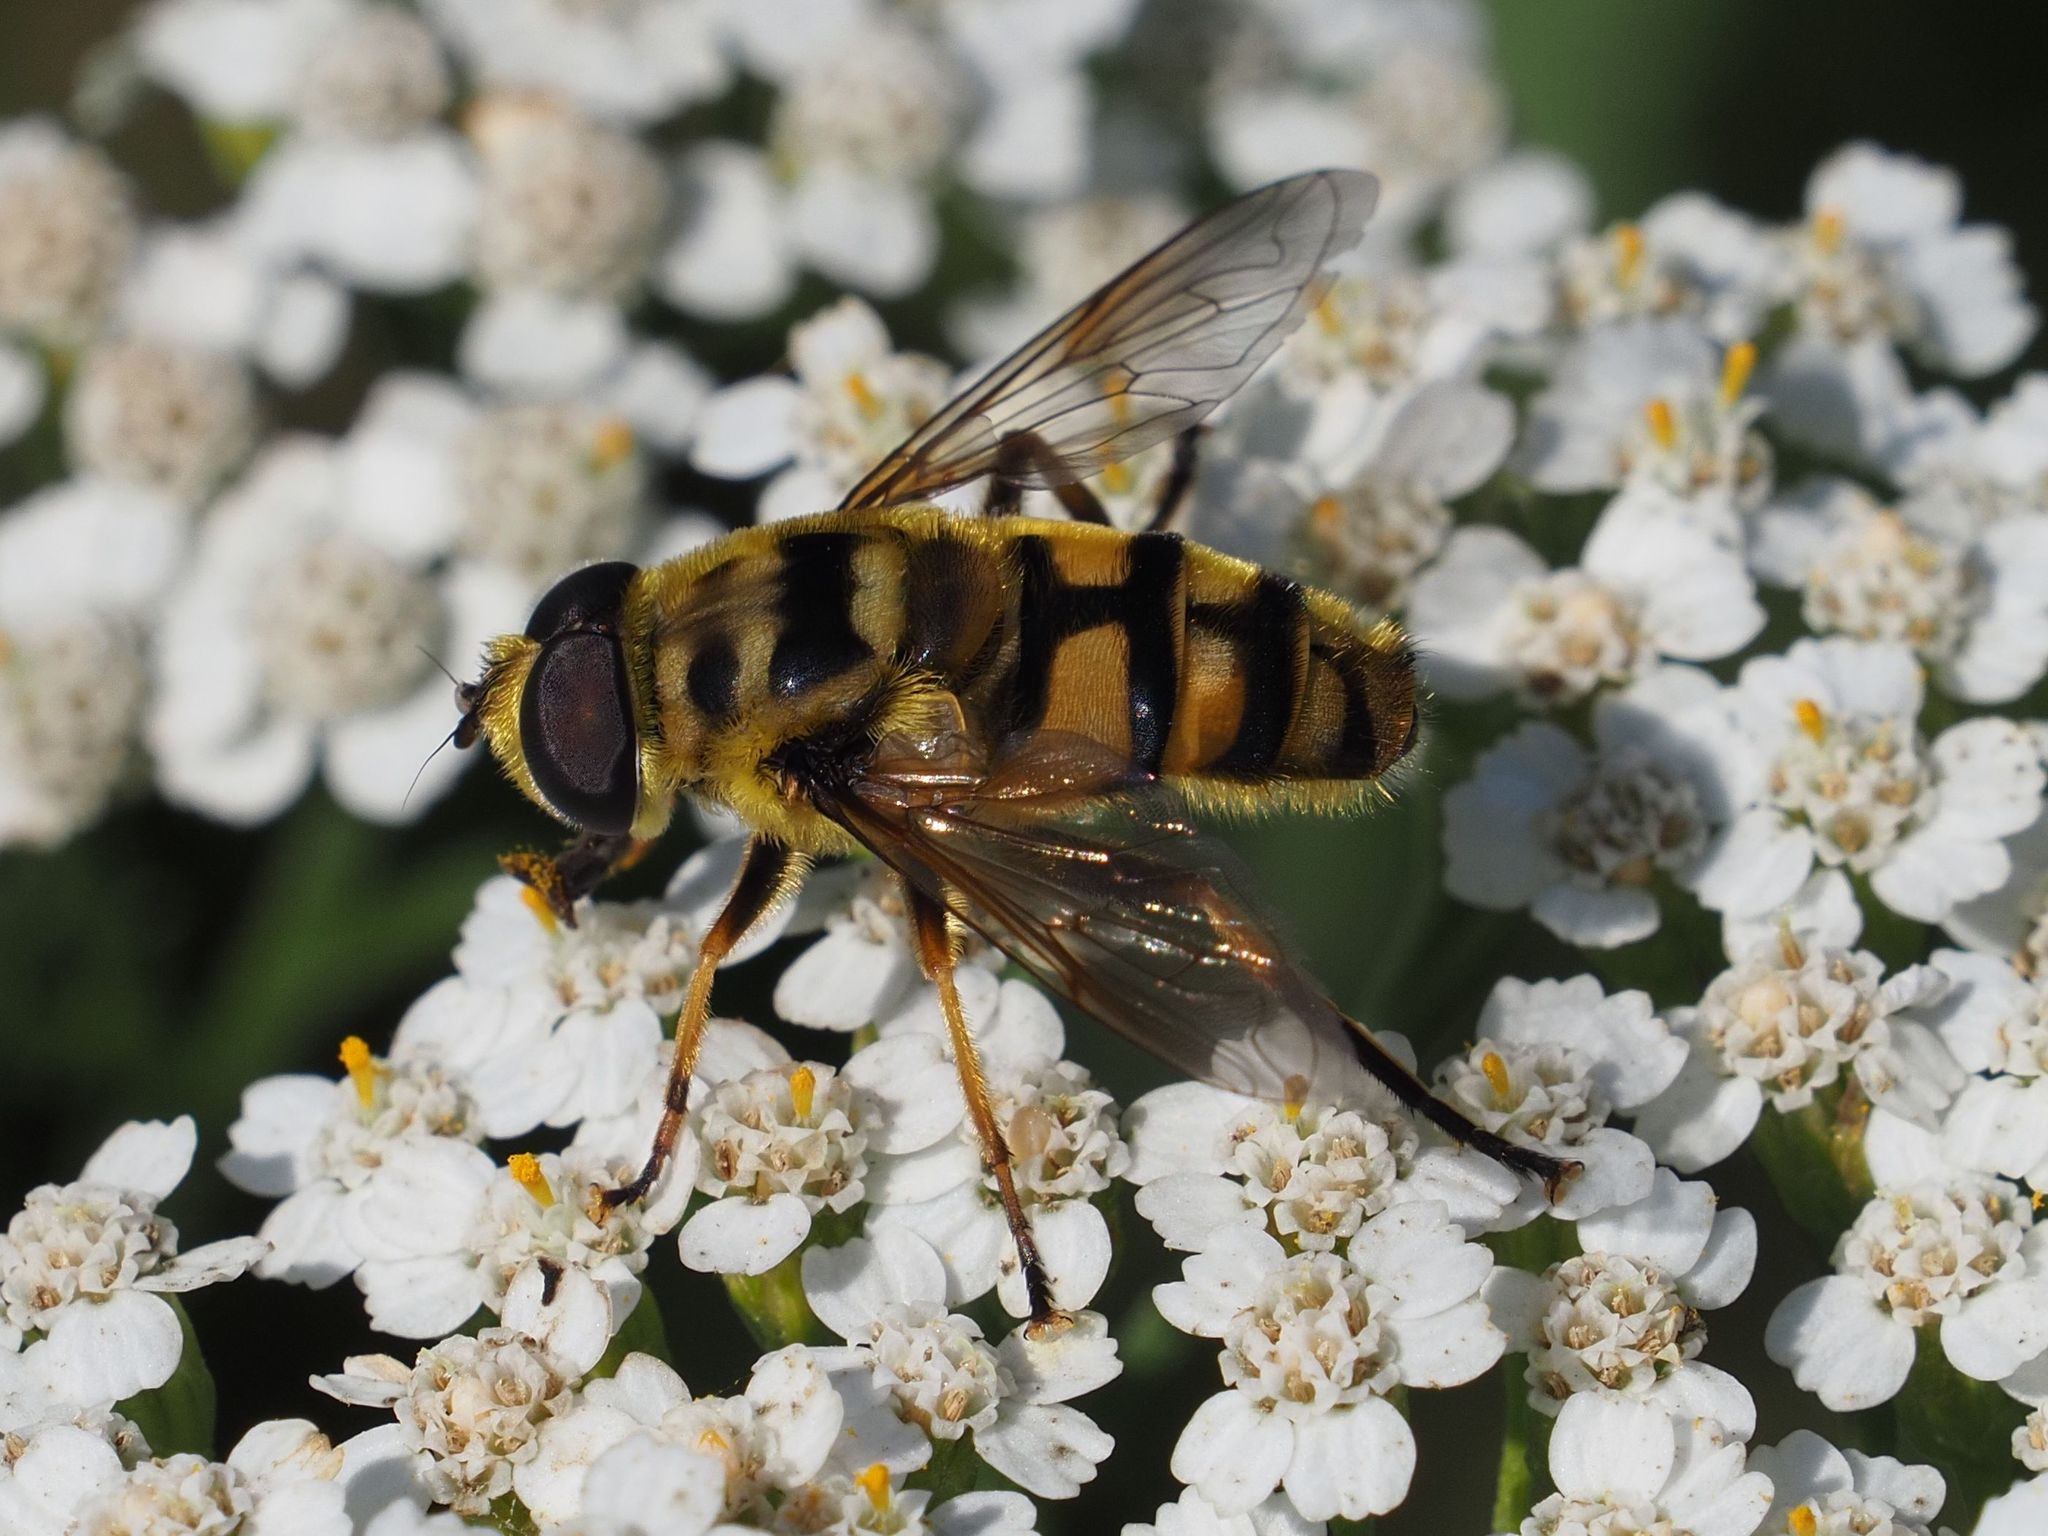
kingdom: Animalia
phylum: Arthropoda
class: Insecta
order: Diptera
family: Syrphidae
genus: Myathropa
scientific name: Myathropa florea
